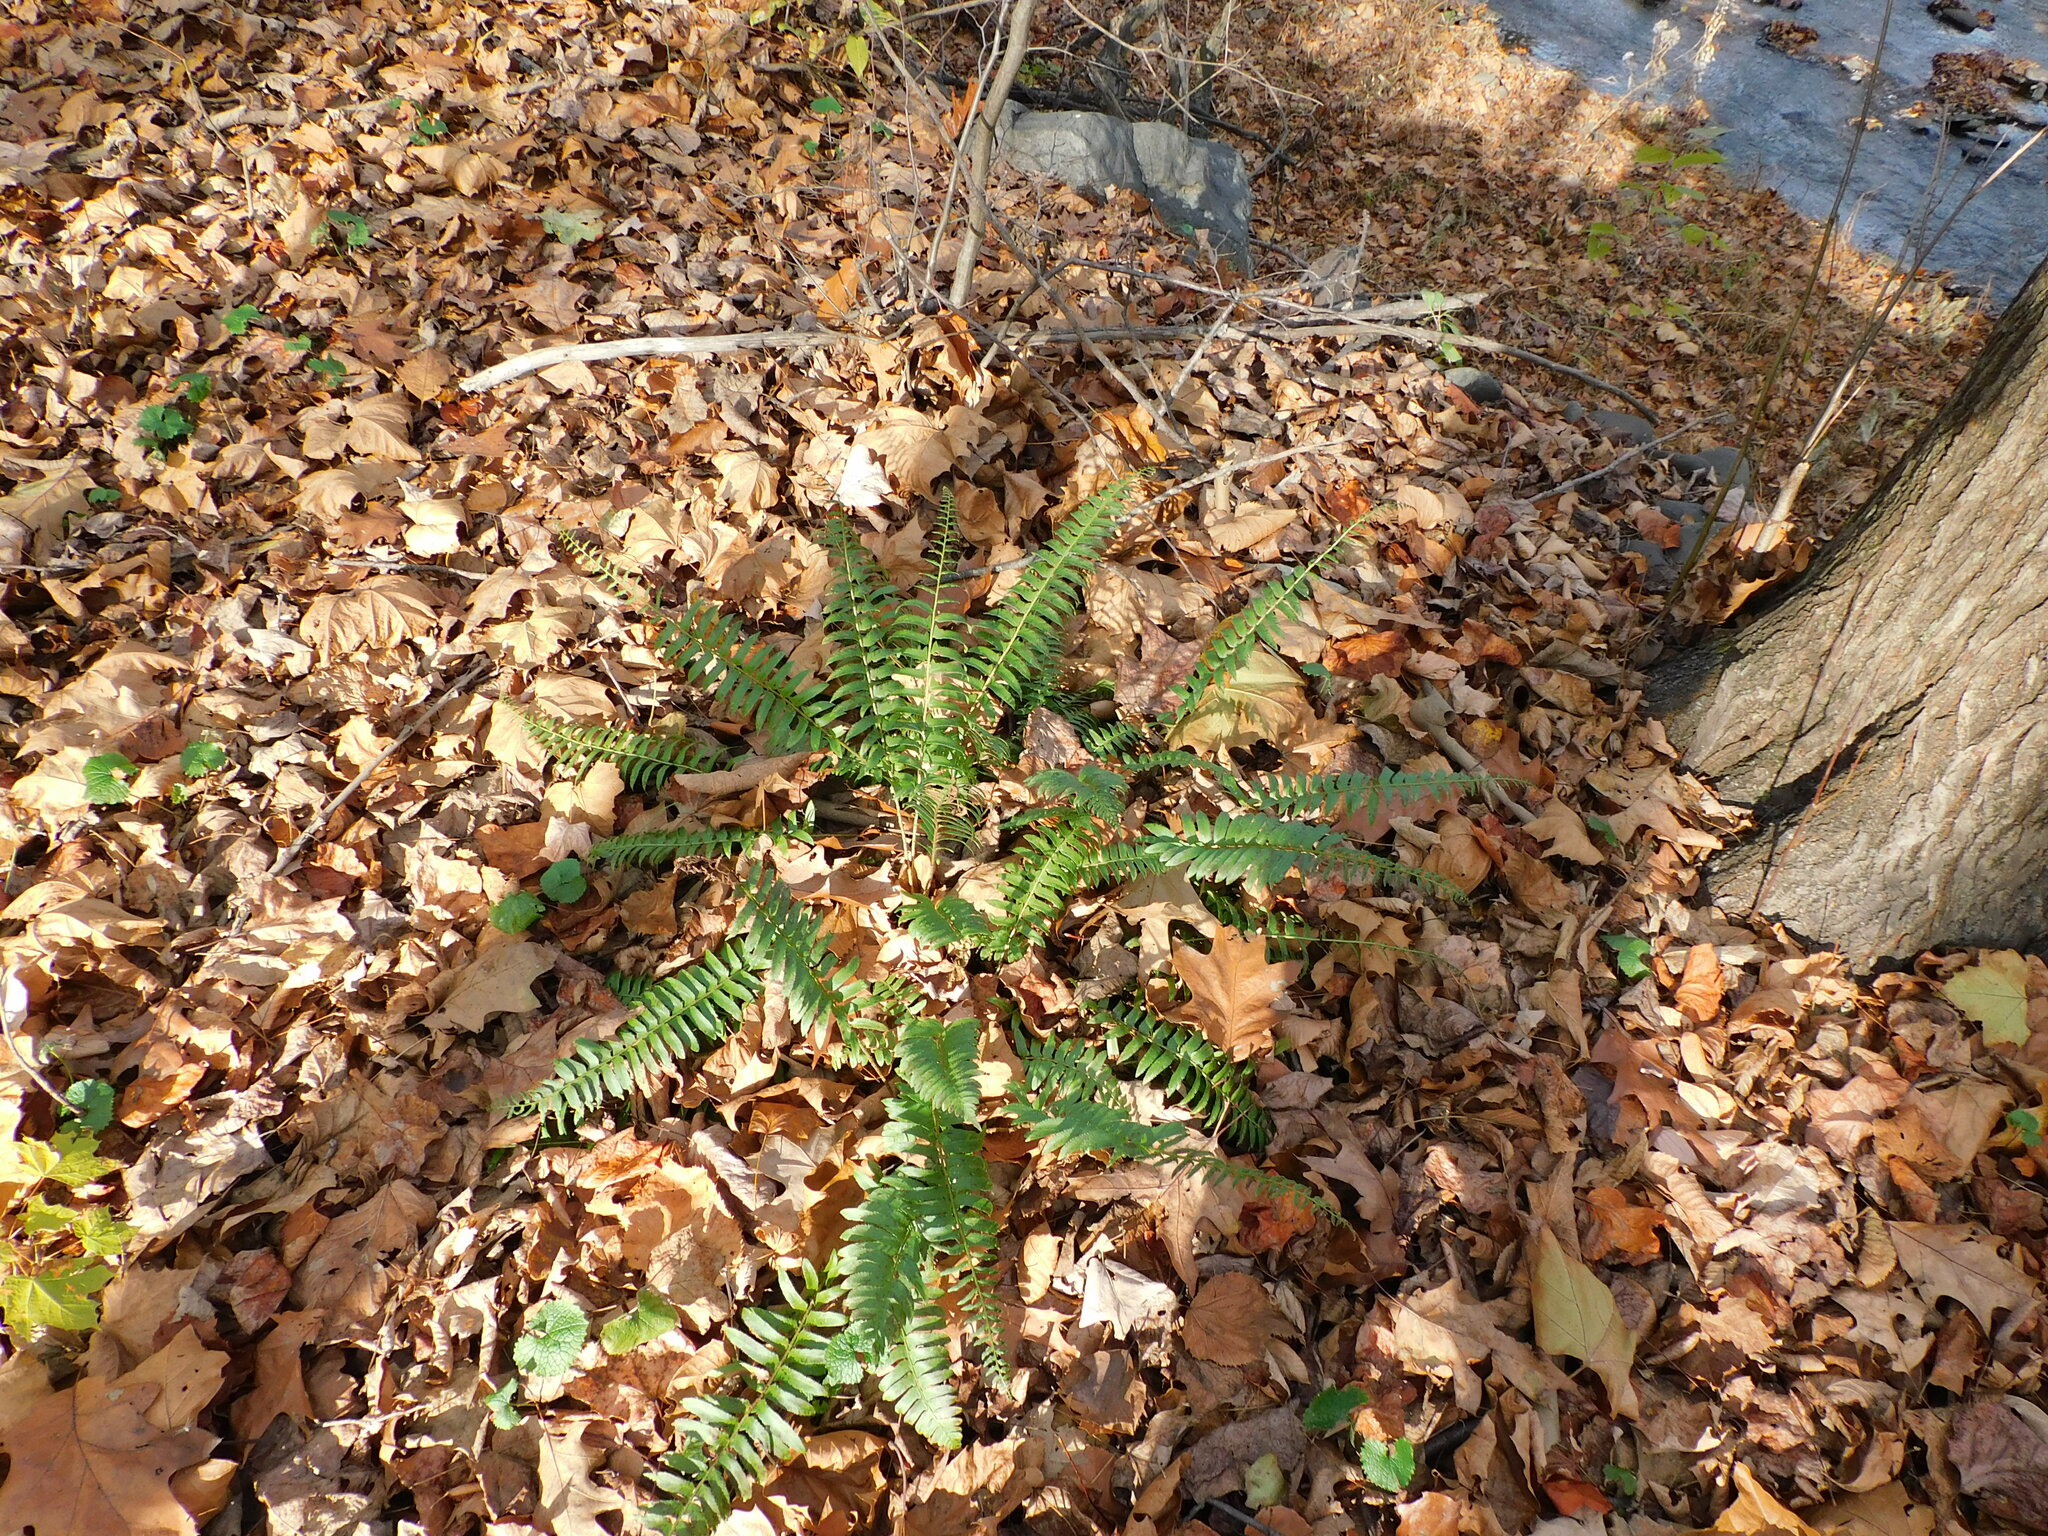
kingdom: Plantae
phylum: Tracheophyta
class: Polypodiopsida
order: Polypodiales
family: Dryopteridaceae
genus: Polystichum
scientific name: Polystichum acrostichoides
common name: Christmas fern
